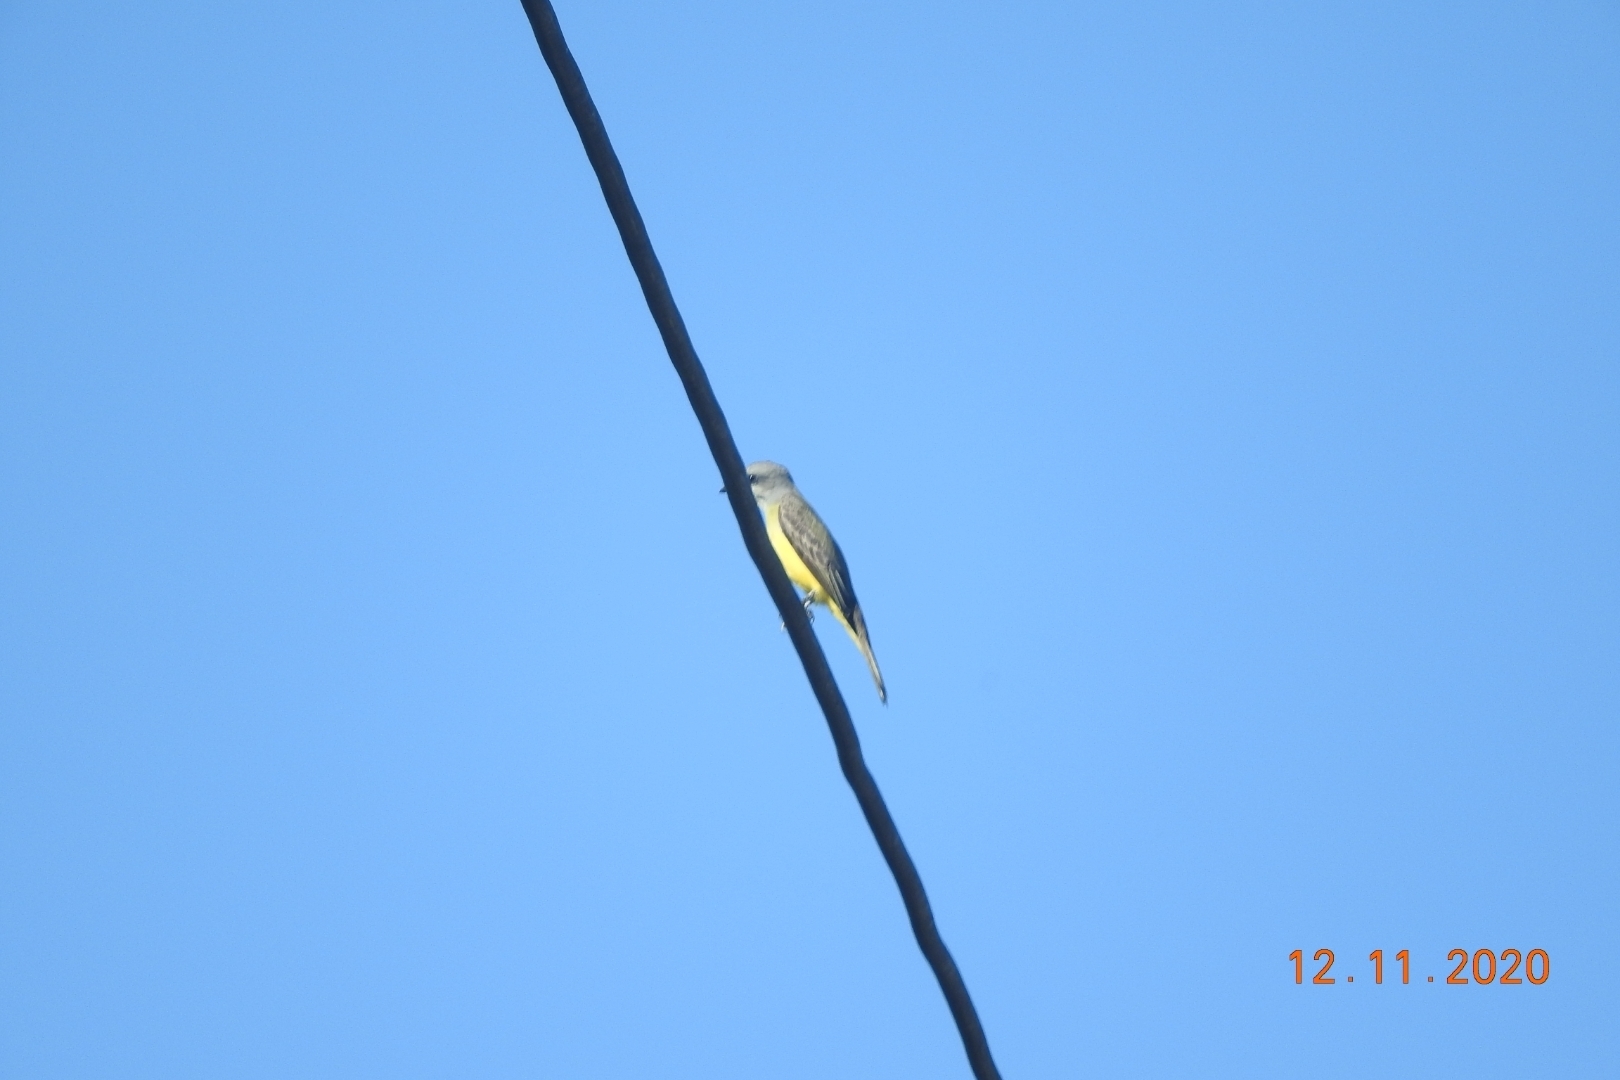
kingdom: Animalia
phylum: Chordata
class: Aves
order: Passeriformes
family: Tyrannidae
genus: Tyrannus
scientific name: Tyrannus melancholicus
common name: Tropical kingbird
